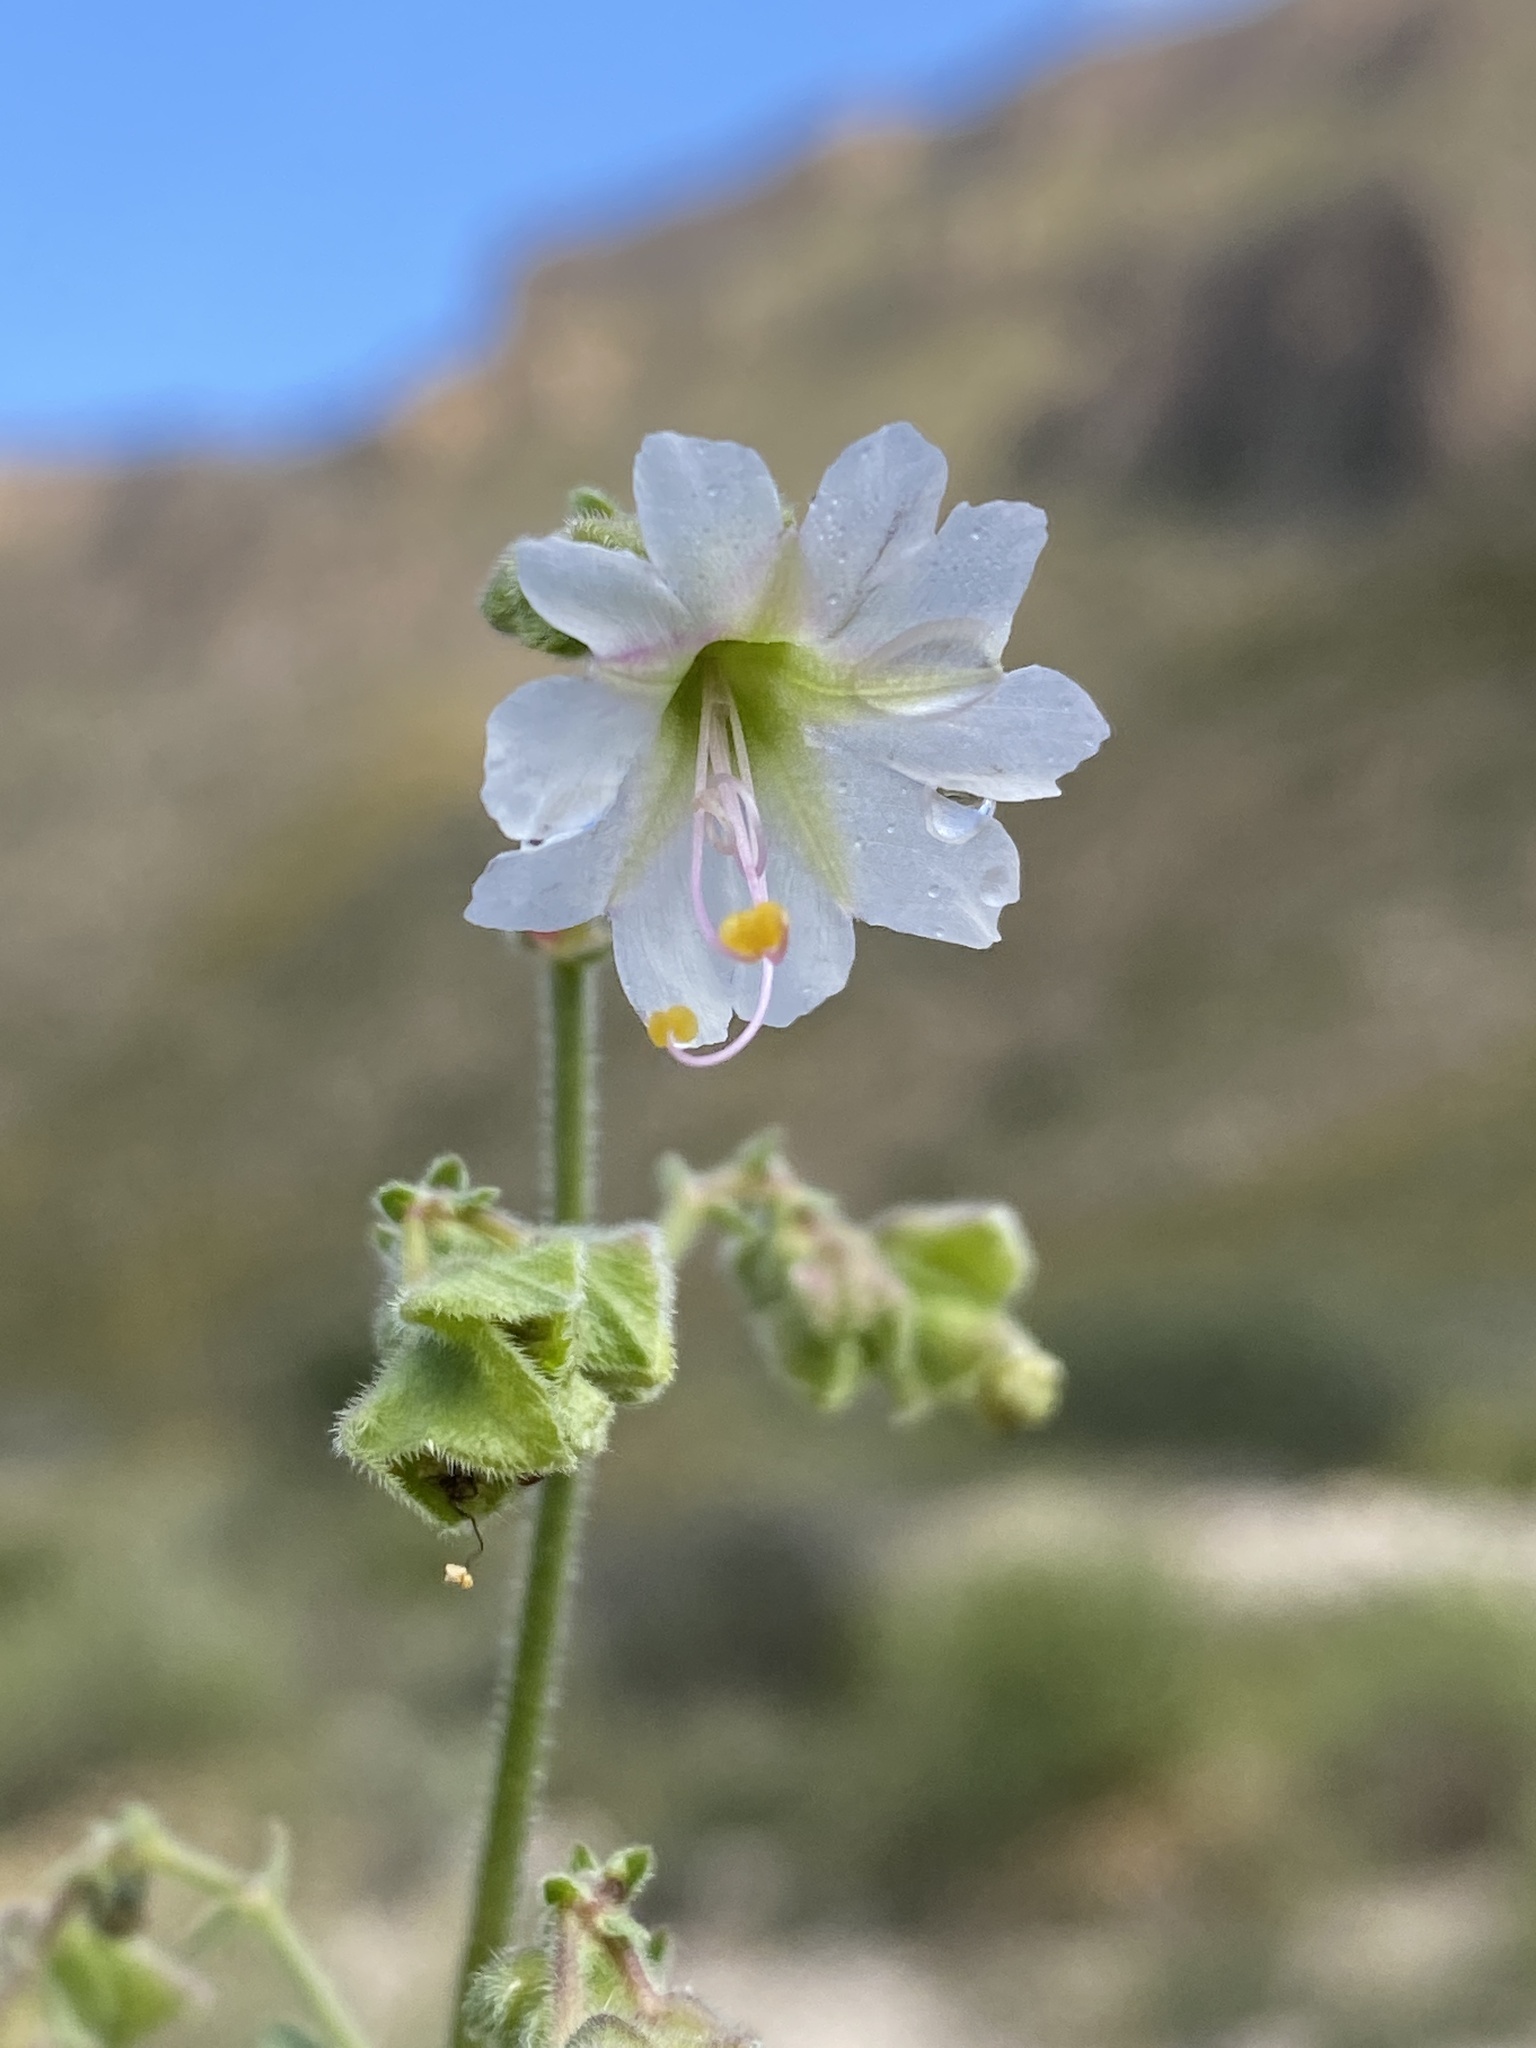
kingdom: Plantae
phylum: Tracheophyta
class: Magnoliopsida
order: Caryophyllales
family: Nyctaginaceae
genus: Mirabilis
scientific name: Mirabilis linearis
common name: Linear-leaved four-o'clock
